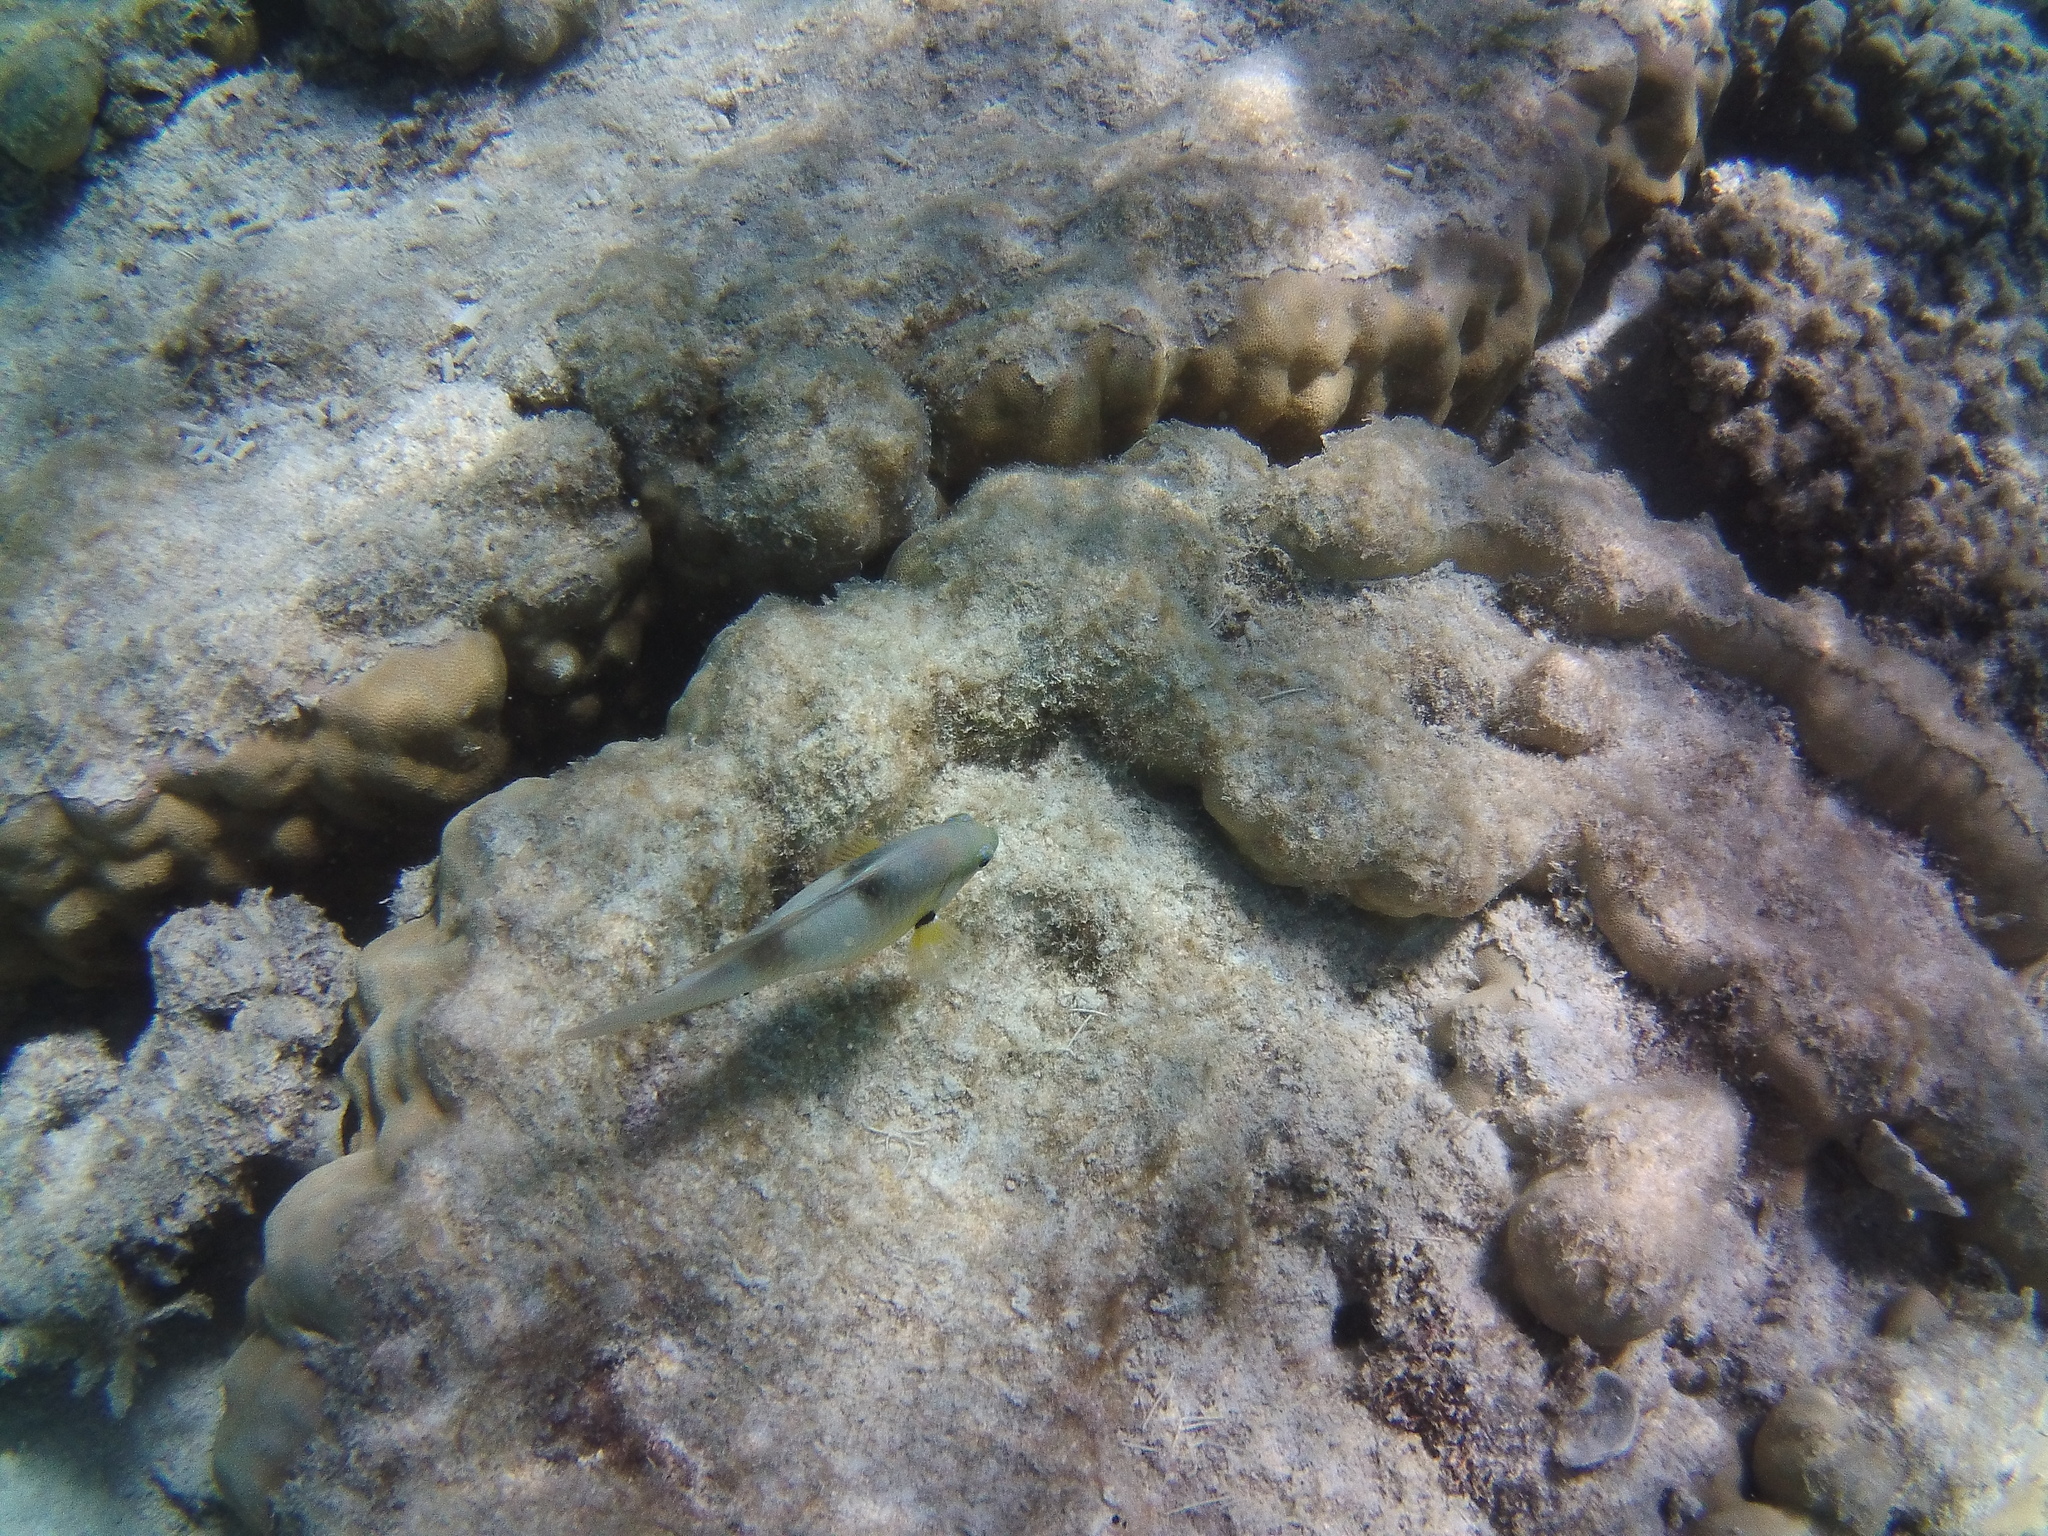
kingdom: Animalia
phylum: Chordata
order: Perciformes
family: Pomacentridae
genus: Dischistodus
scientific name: Dischistodus prosopotaenia
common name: Honey-head damsel
